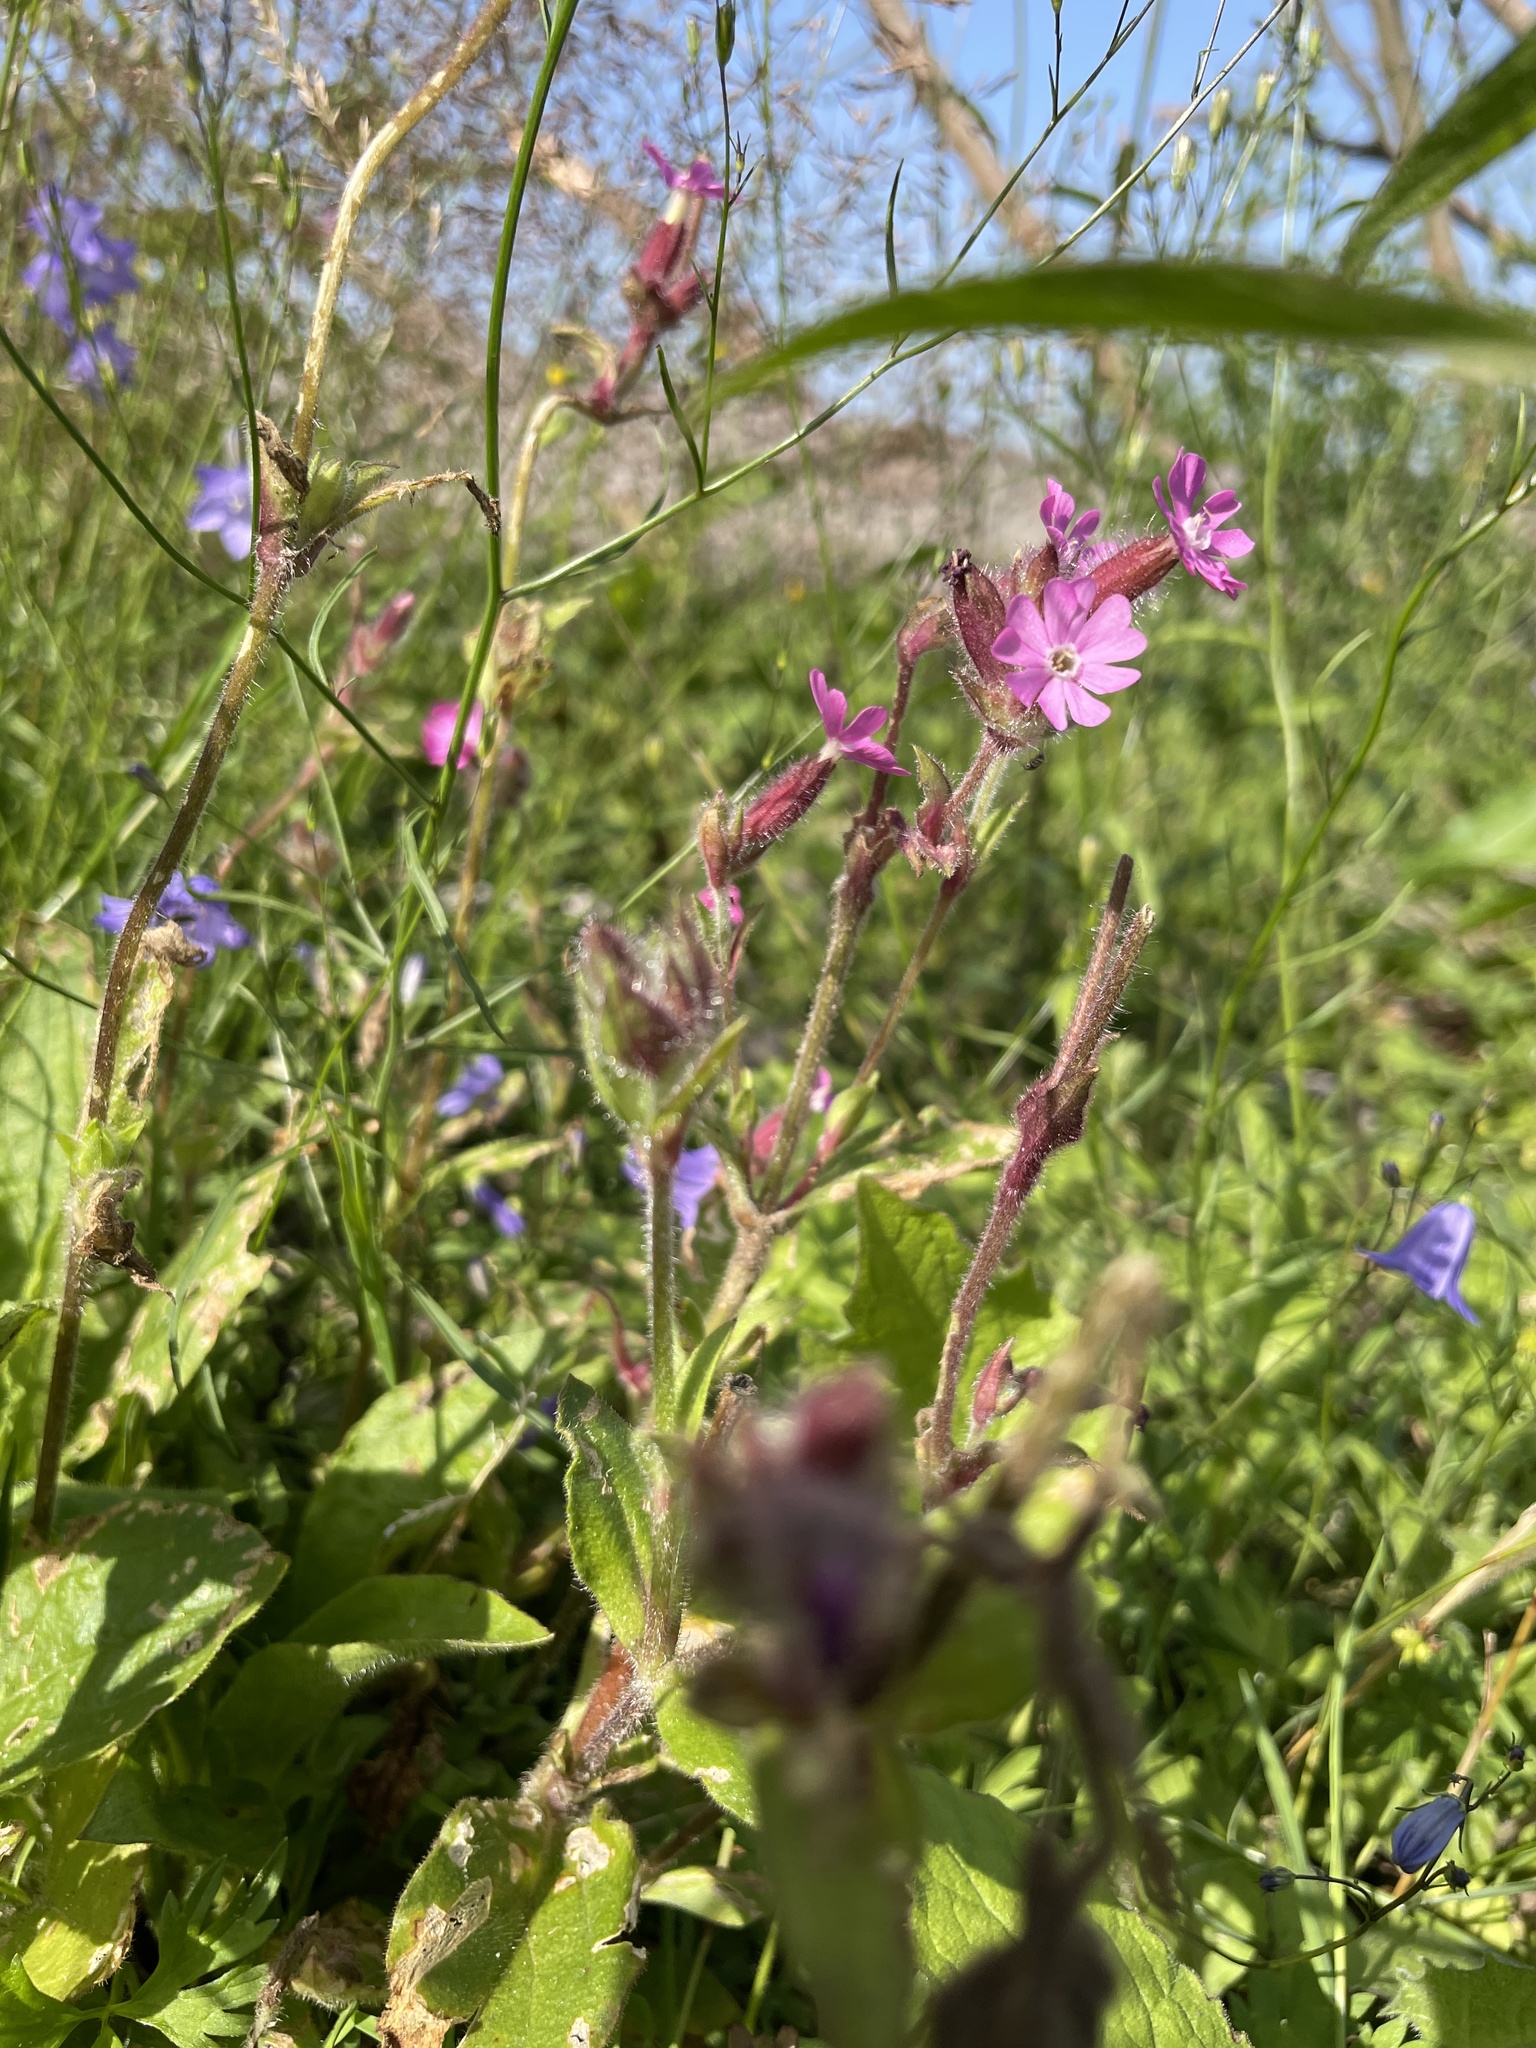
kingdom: Plantae
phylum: Tracheophyta
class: Magnoliopsida
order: Caryophyllales
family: Caryophyllaceae
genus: Silene
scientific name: Silene dioica
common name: Red campion
